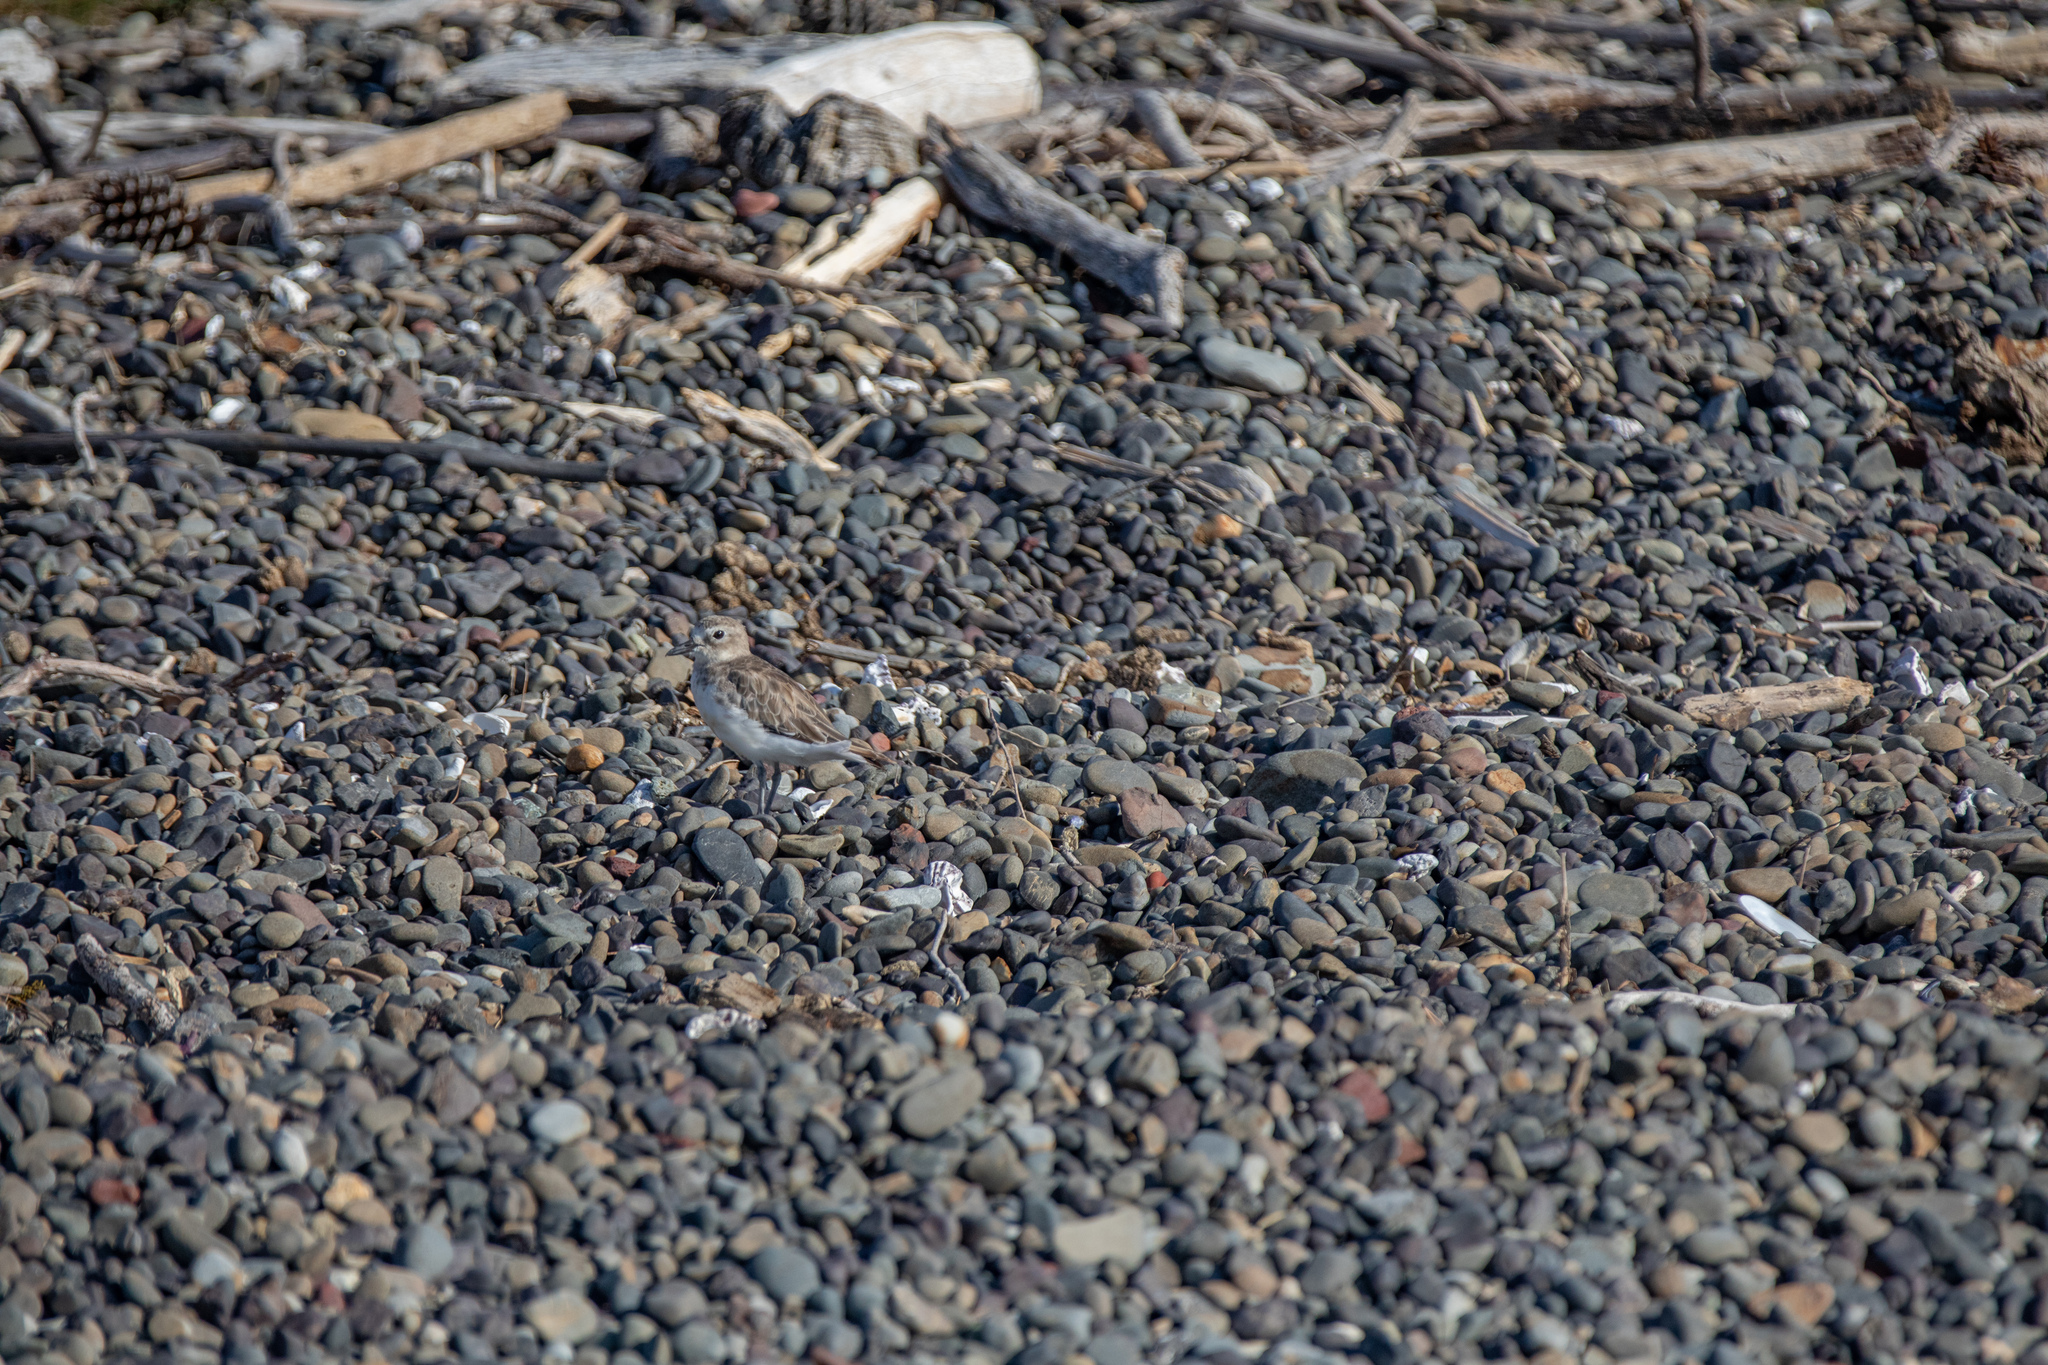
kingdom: Animalia
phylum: Chordata
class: Aves
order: Charadriiformes
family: Charadriidae
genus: Anarhynchus
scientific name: Anarhynchus
